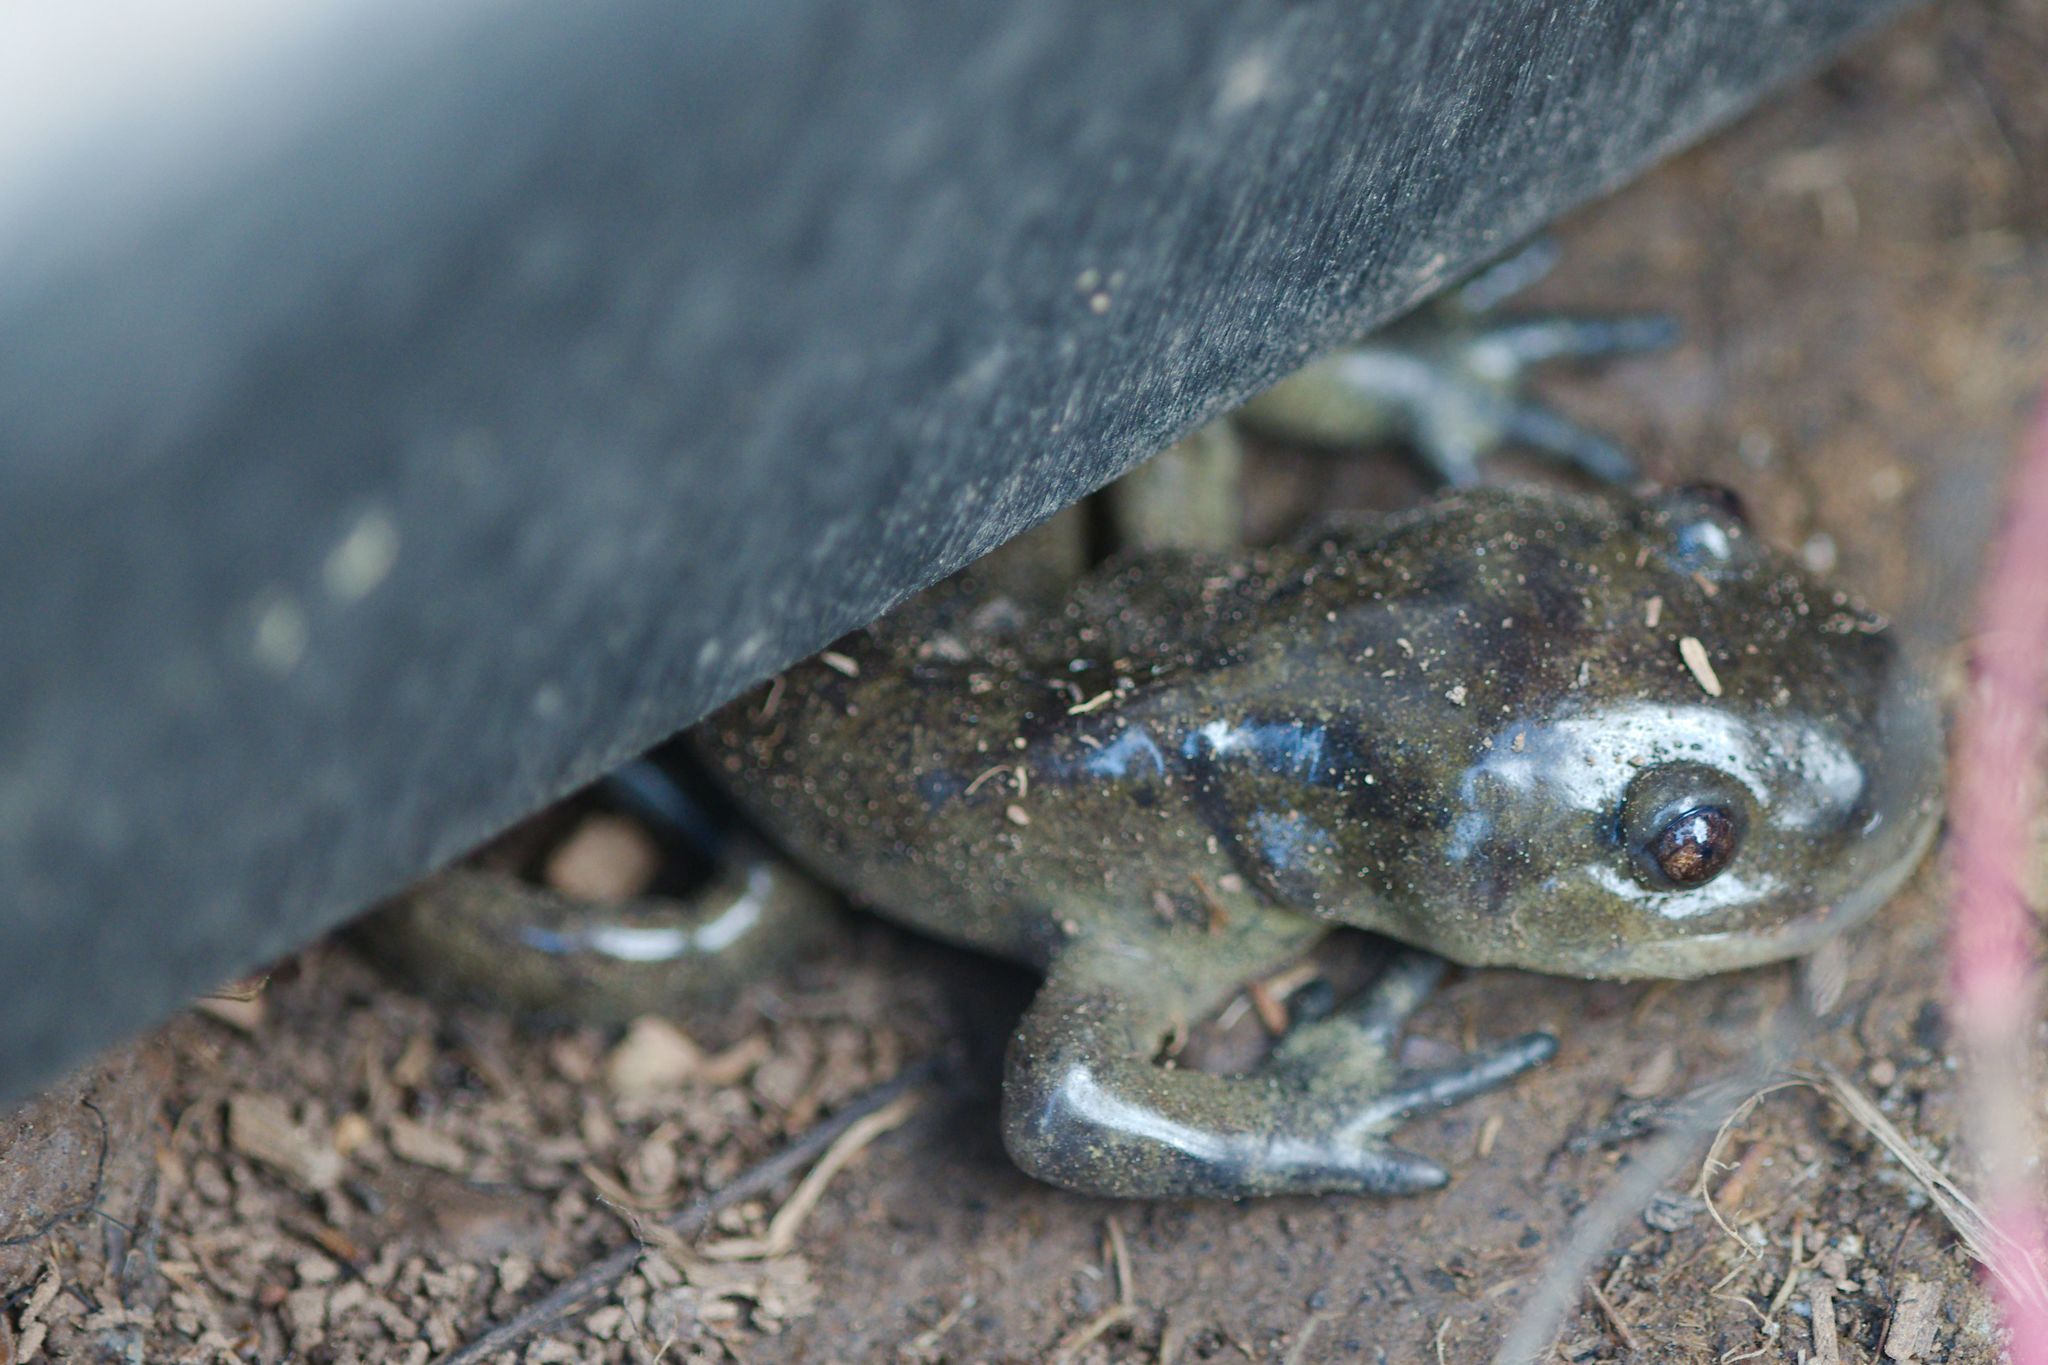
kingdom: Animalia
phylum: Chordata
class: Amphibia
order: Caudata
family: Ambystomatidae
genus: Ambystoma
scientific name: Ambystoma mavortium
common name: Western tiger salamander
